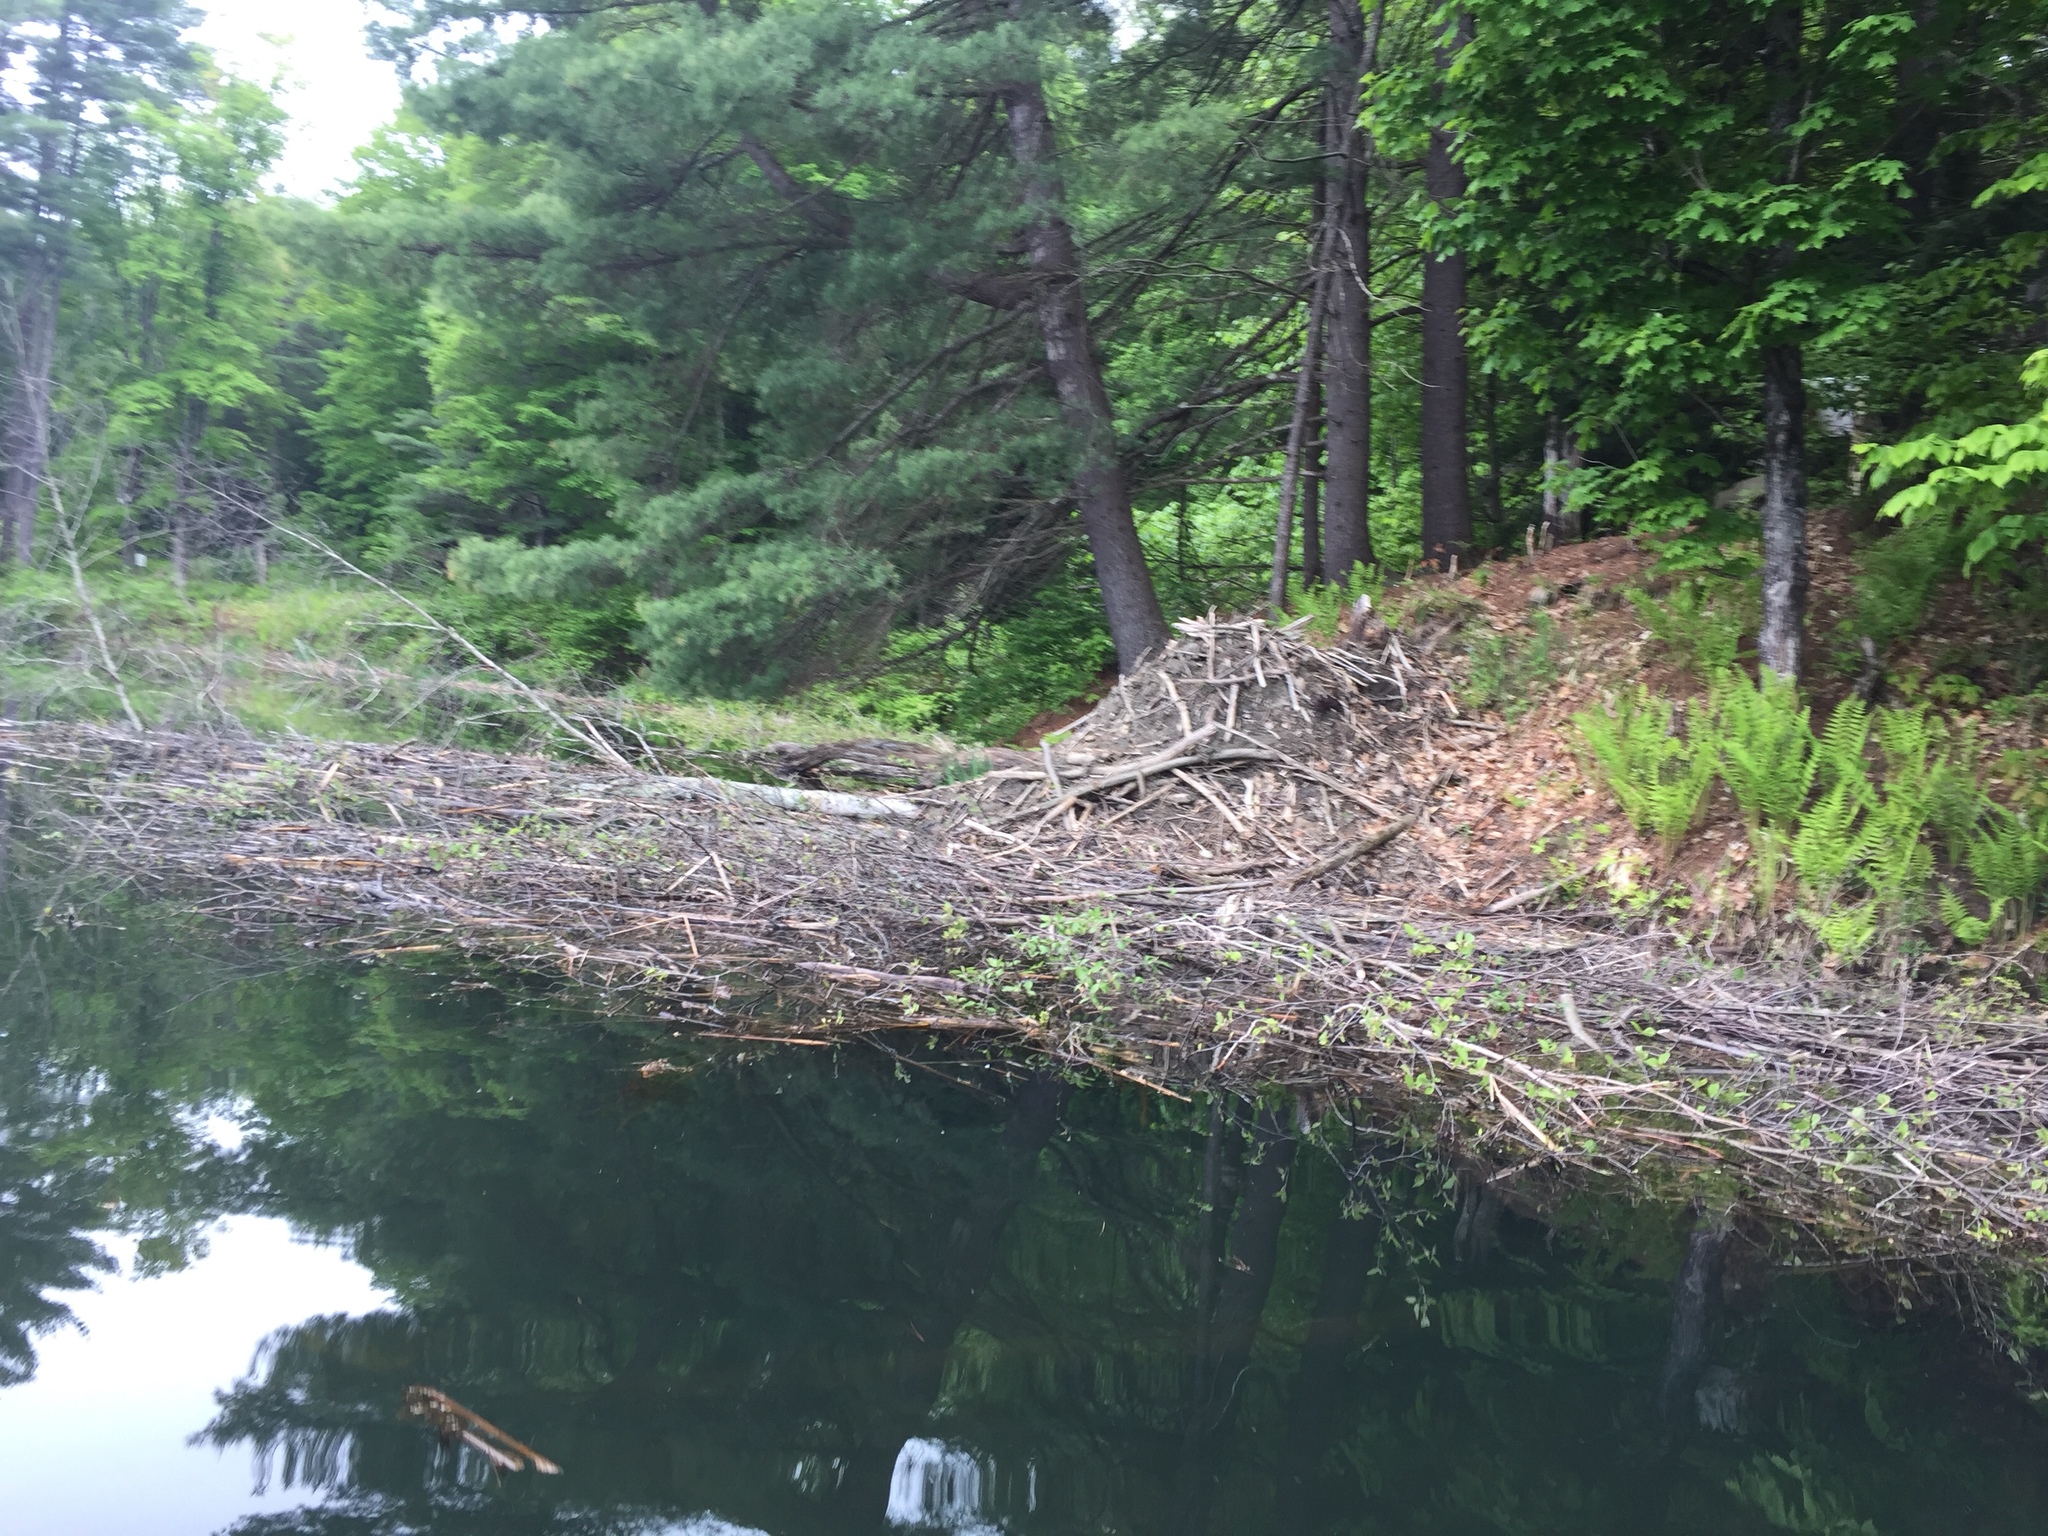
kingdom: Animalia
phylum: Chordata
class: Mammalia
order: Rodentia
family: Castoridae
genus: Castor
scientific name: Castor canadensis
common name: American beaver
